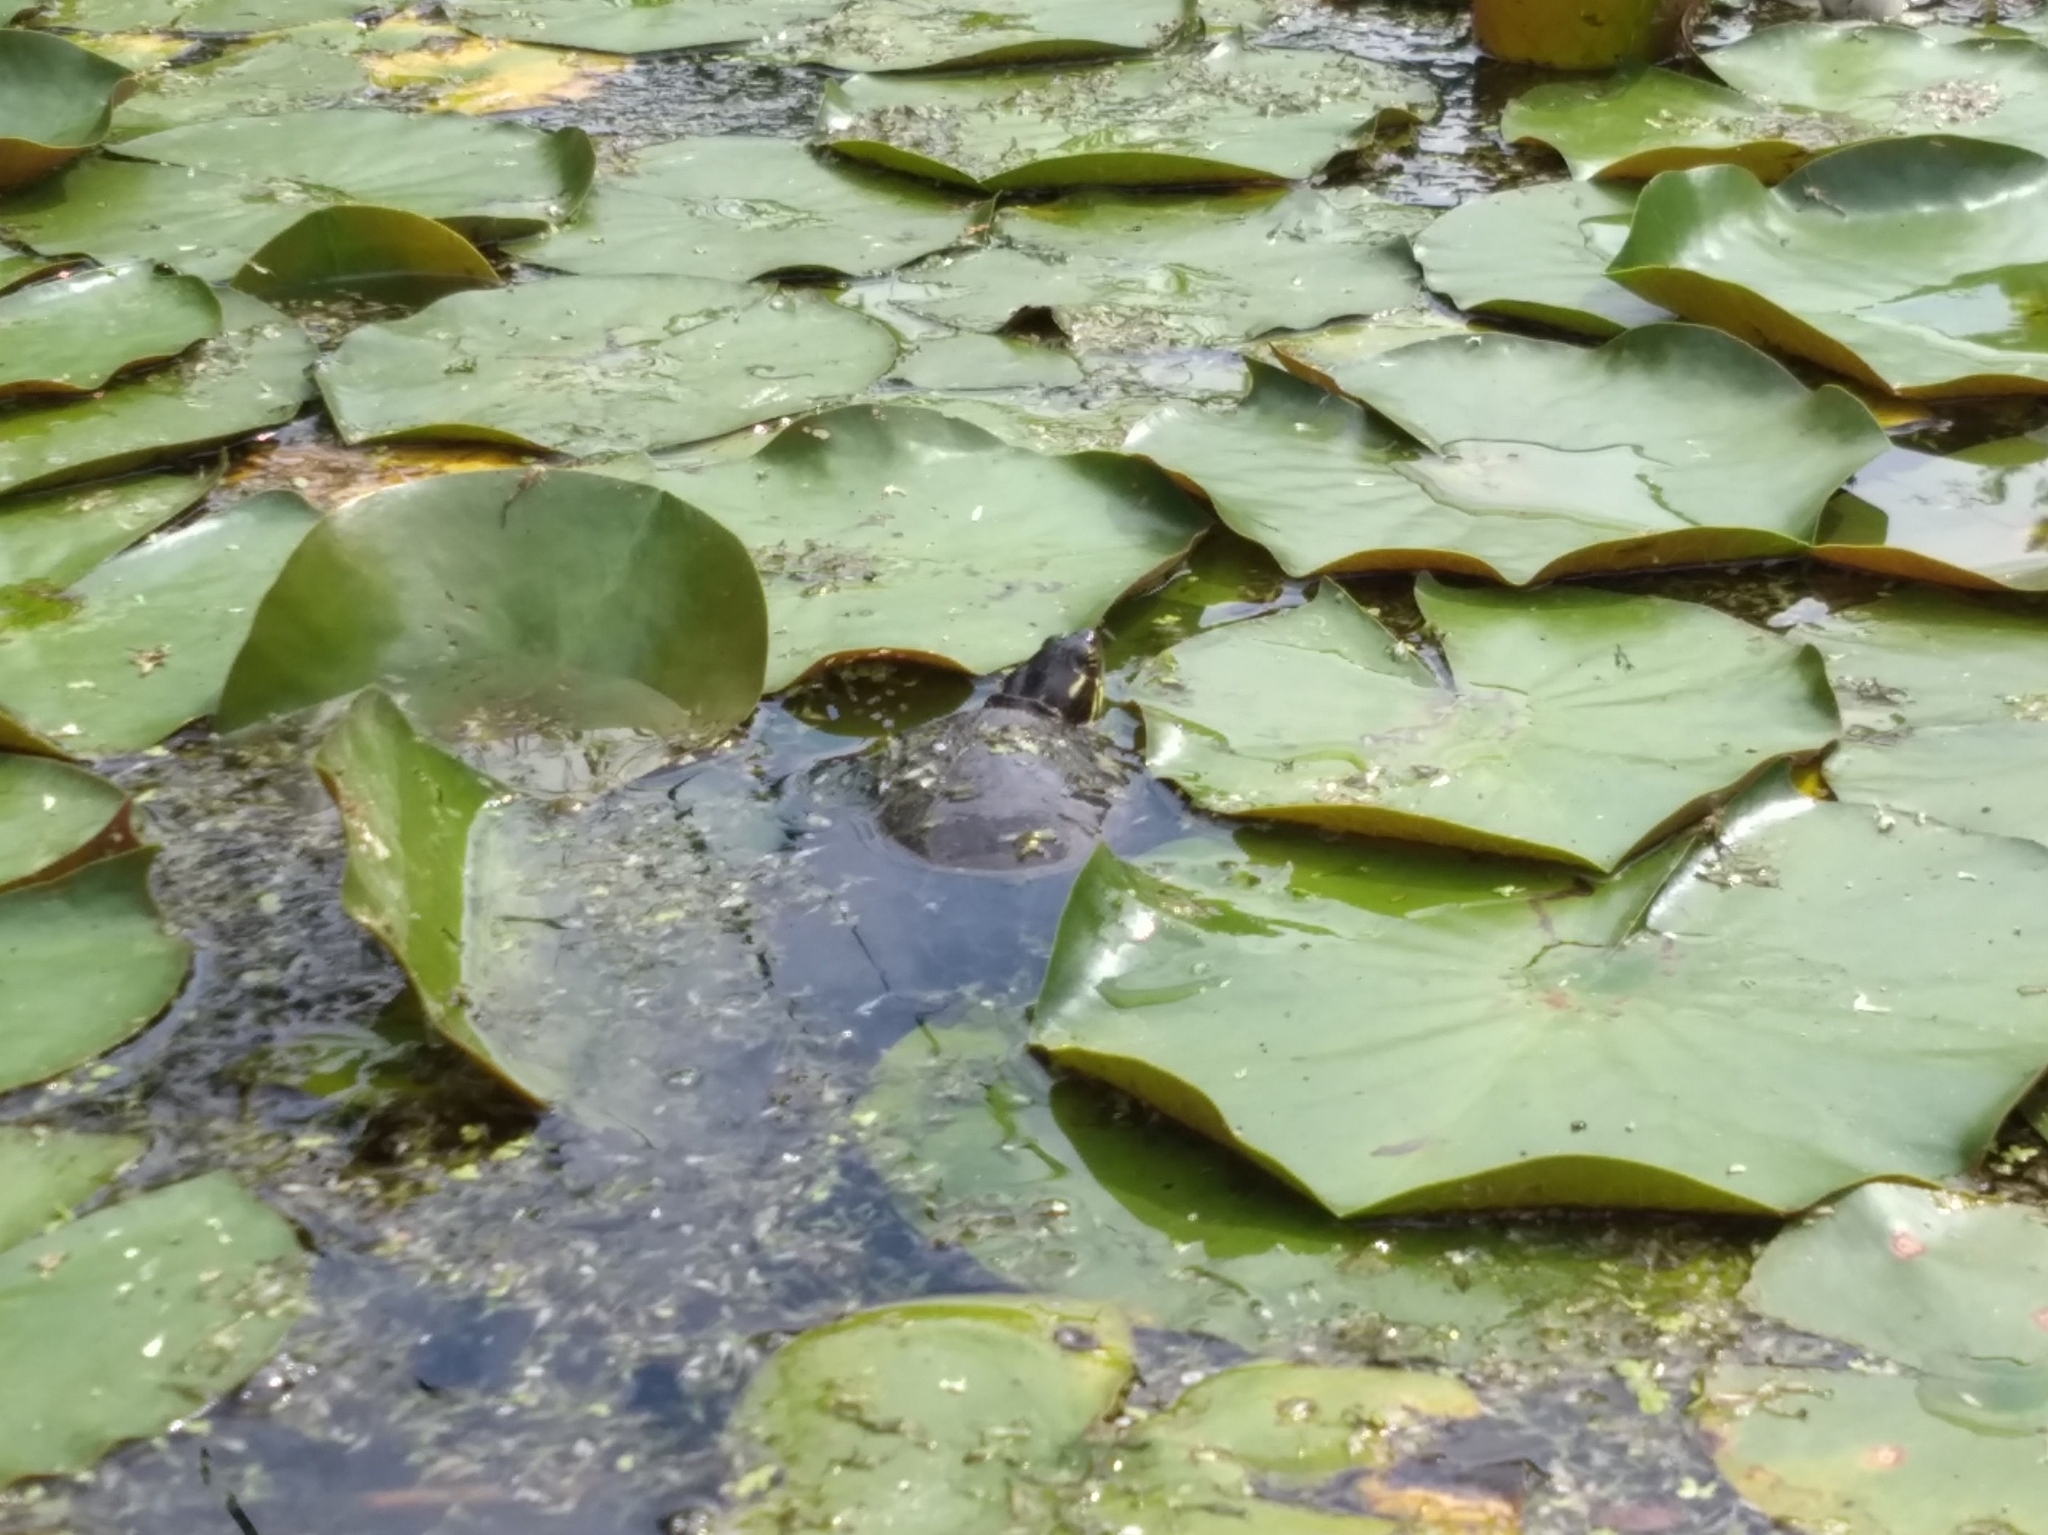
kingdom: Animalia
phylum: Chordata
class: Testudines
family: Emydidae
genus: Chrysemys
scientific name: Chrysemys picta
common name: Painted turtle
